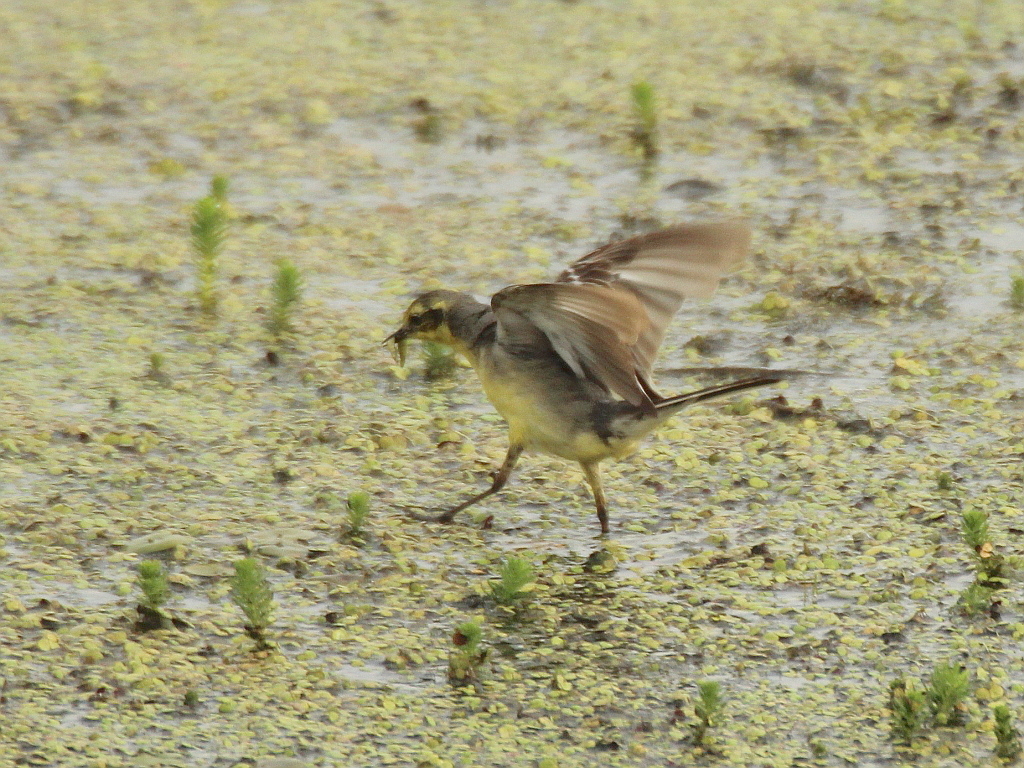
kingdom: Animalia
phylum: Chordata
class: Aves
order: Passeriformes
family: Motacillidae
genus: Motacilla
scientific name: Motacilla citreola
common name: Citrine wagtail
